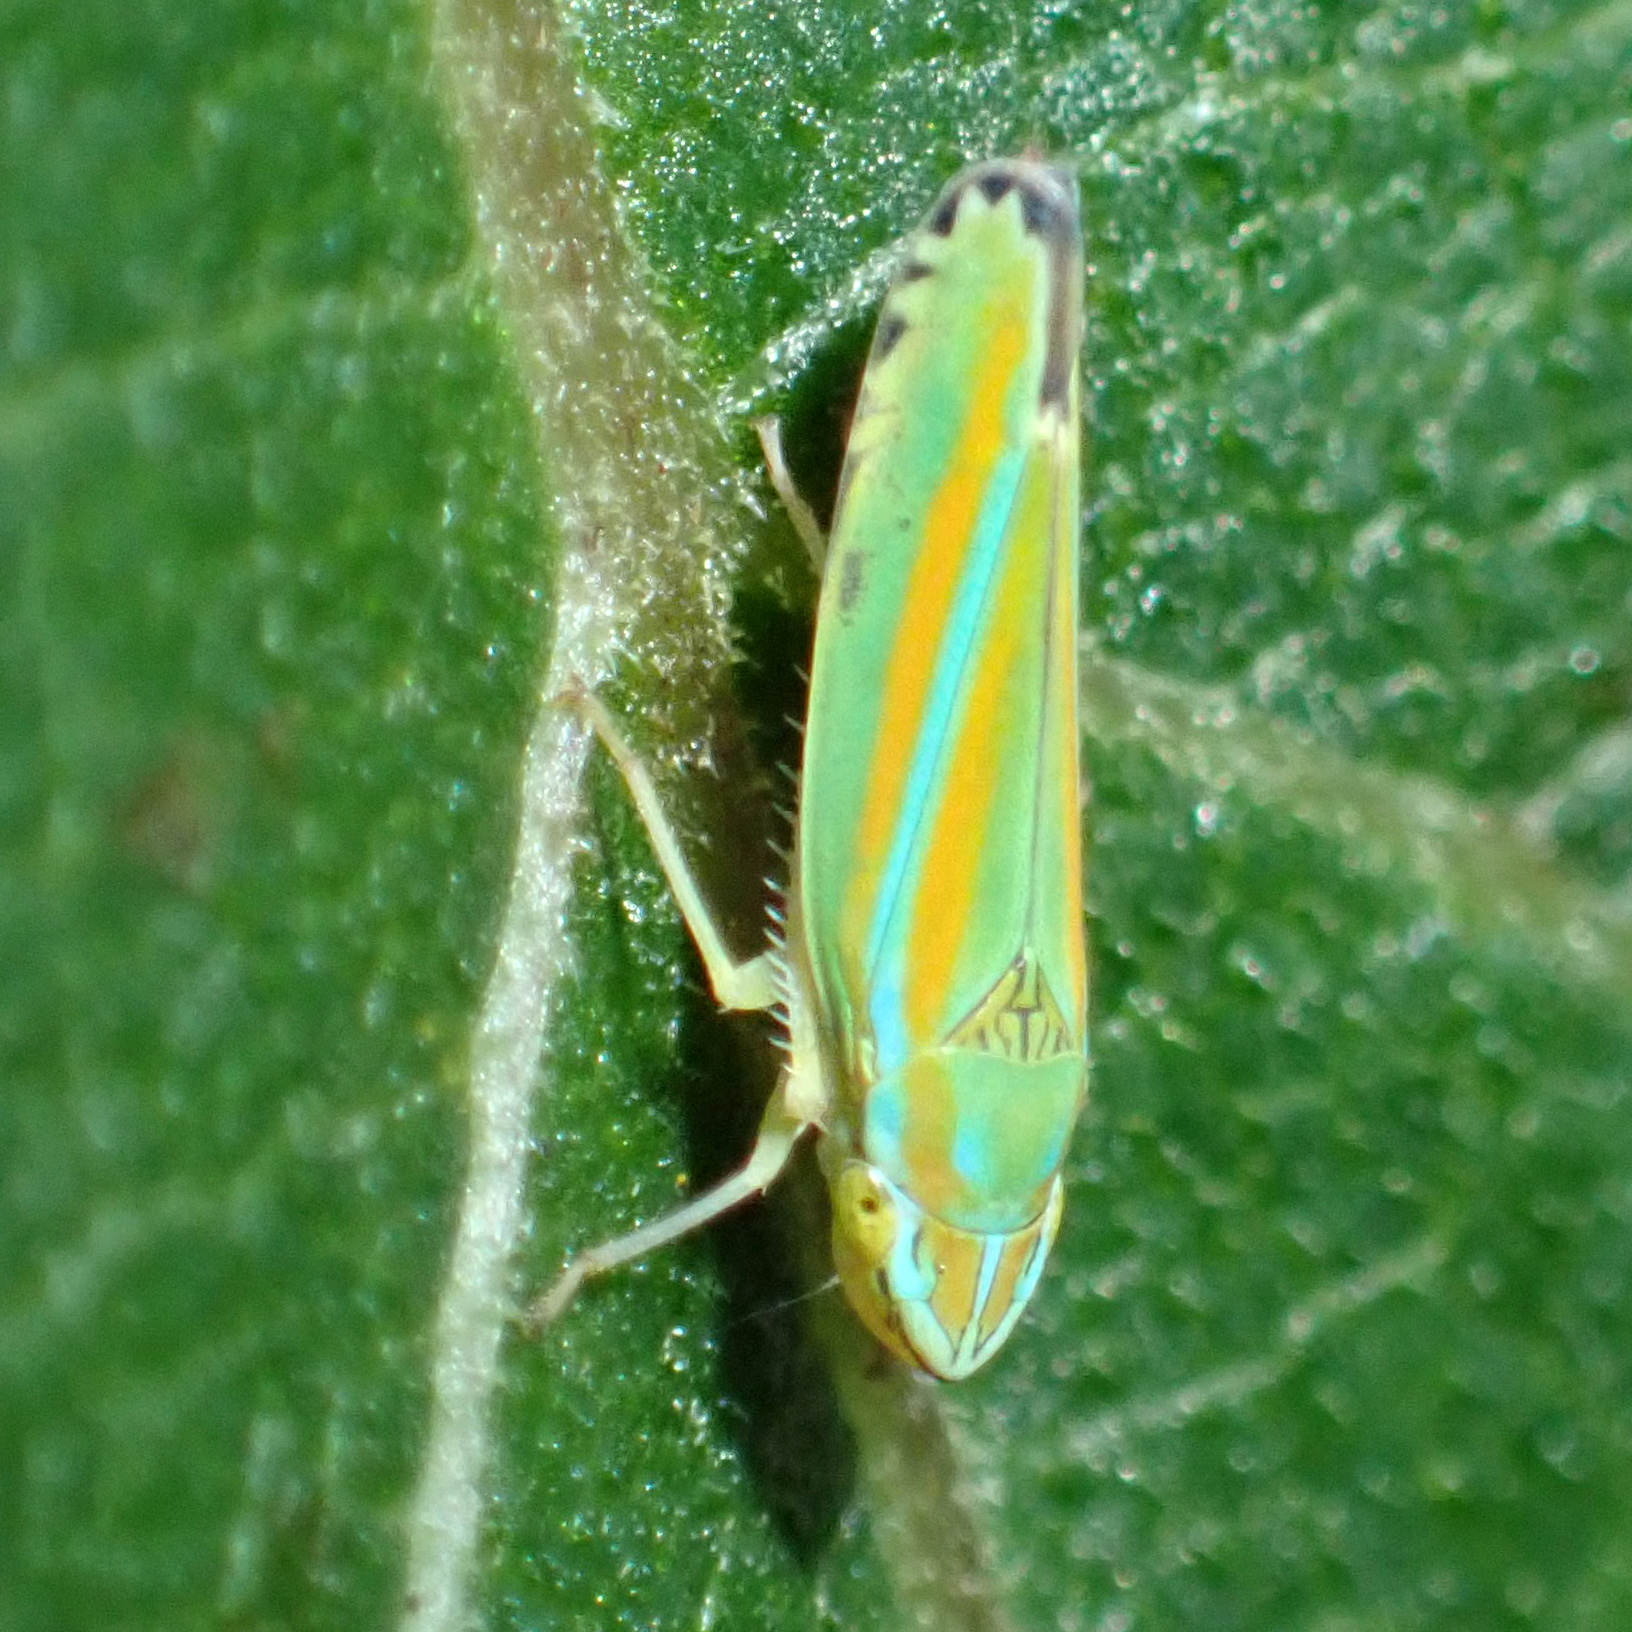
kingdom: Animalia
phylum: Arthropoda
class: Insecta
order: Hemiptera
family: Cicadellidae
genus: Graphocephala
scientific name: Graphocephala versuta
